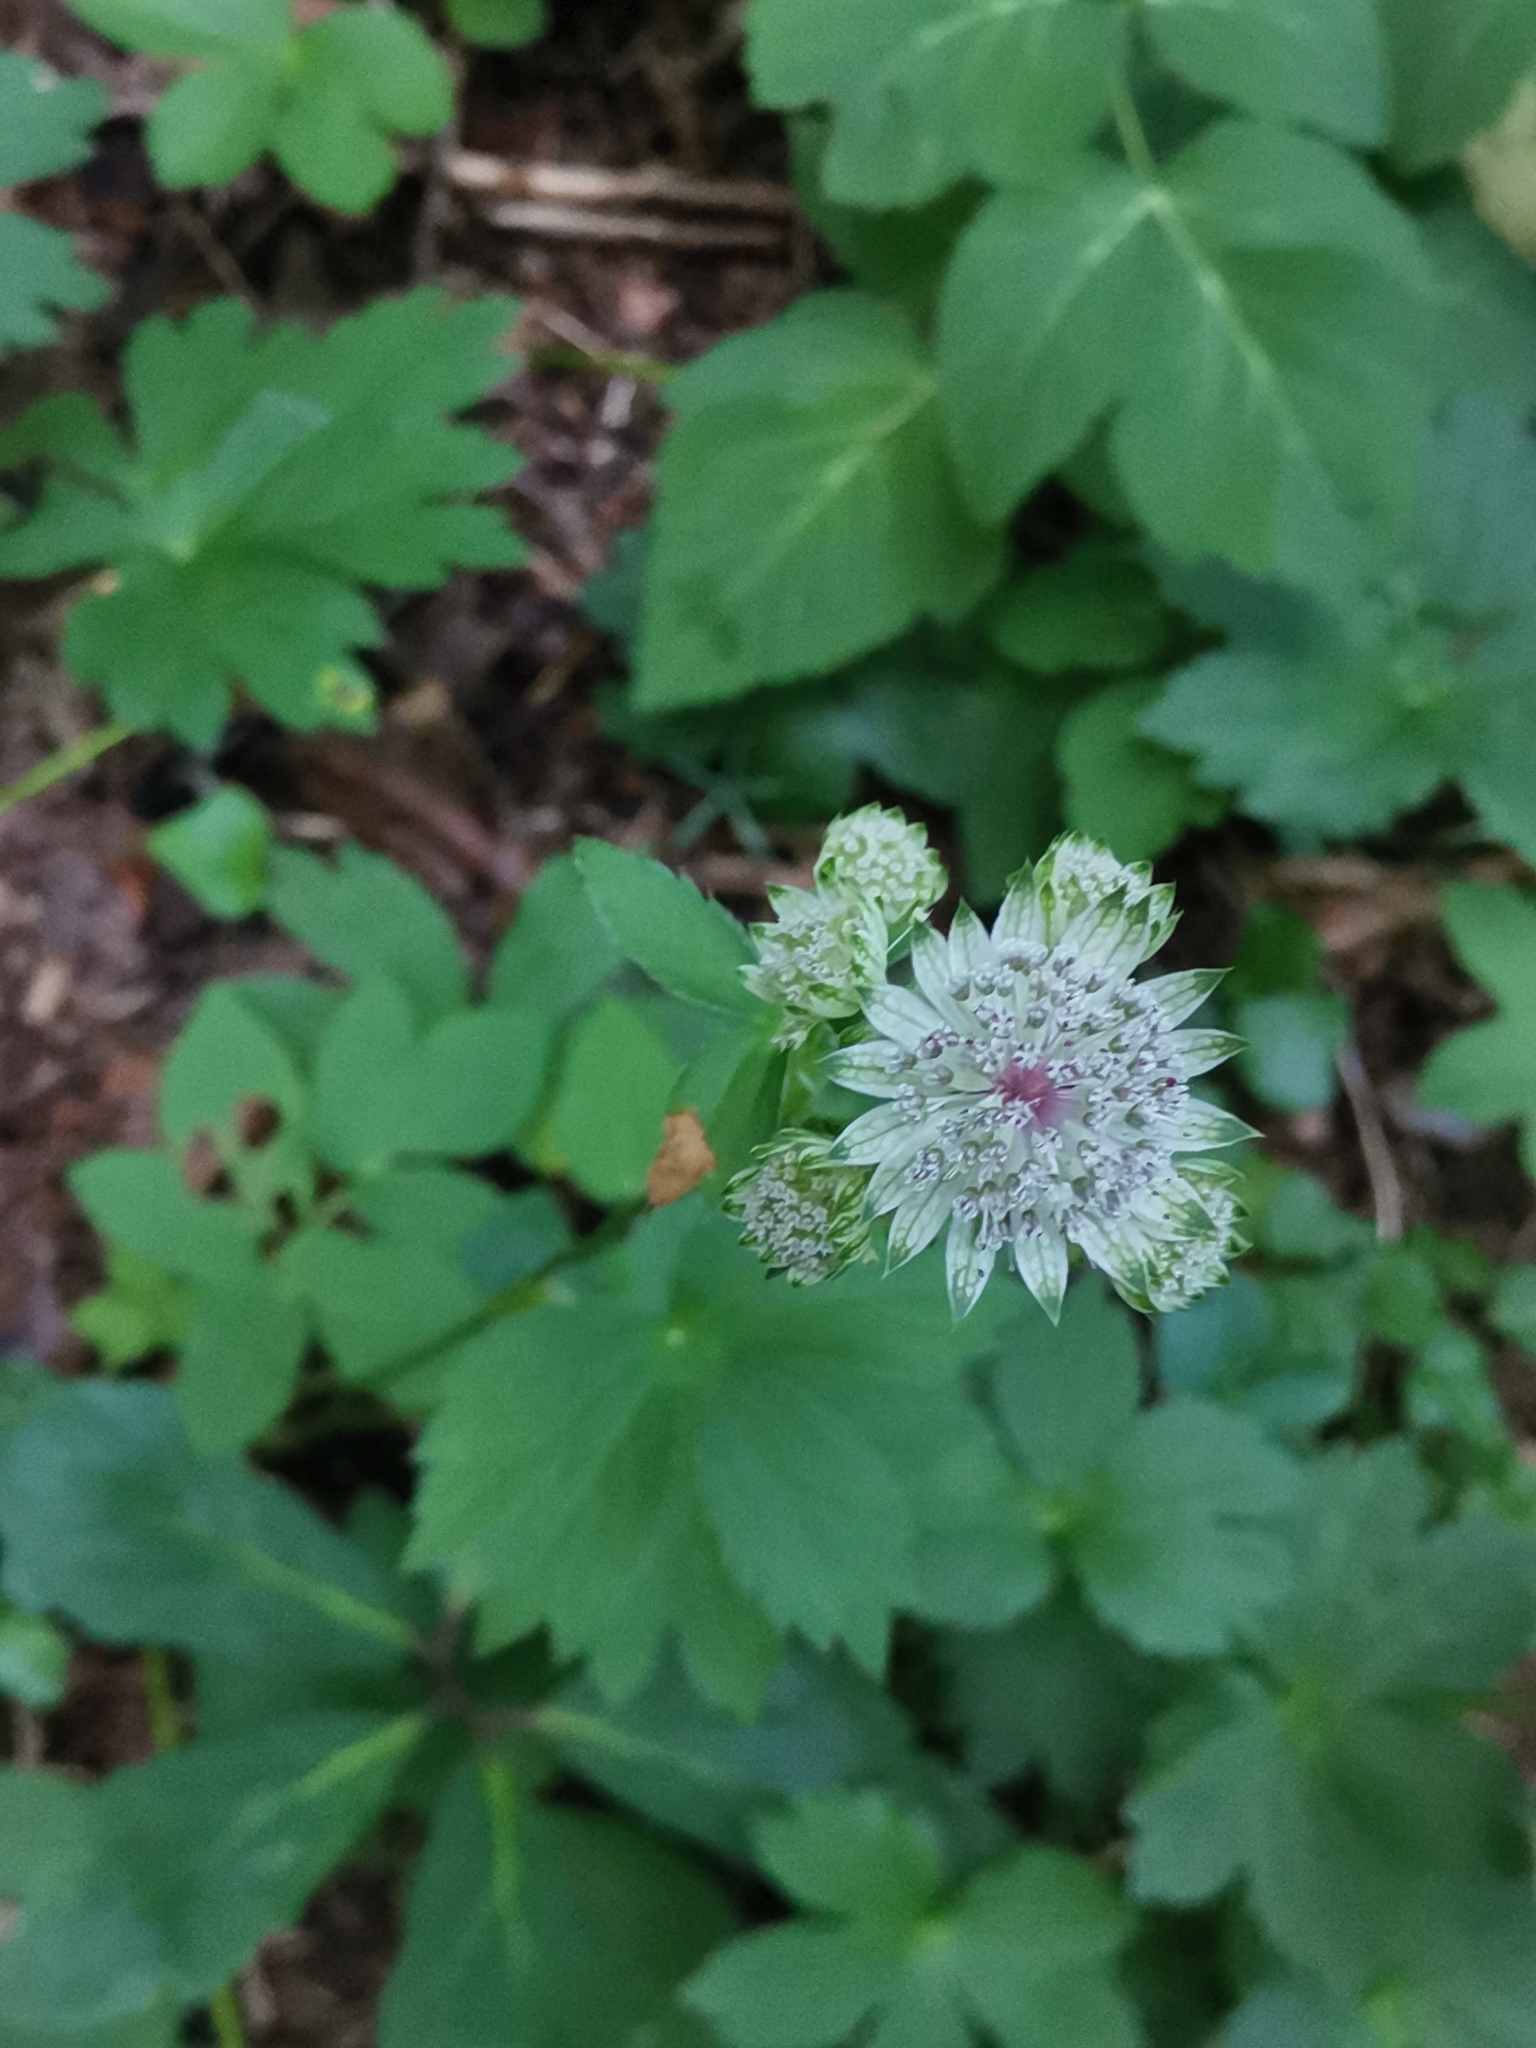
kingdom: Plantae
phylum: Tracheophyta
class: Magnoliopsida
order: Apiales
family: Apiaceae
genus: Astrantia
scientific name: Astrantia major
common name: Greater masterwort
